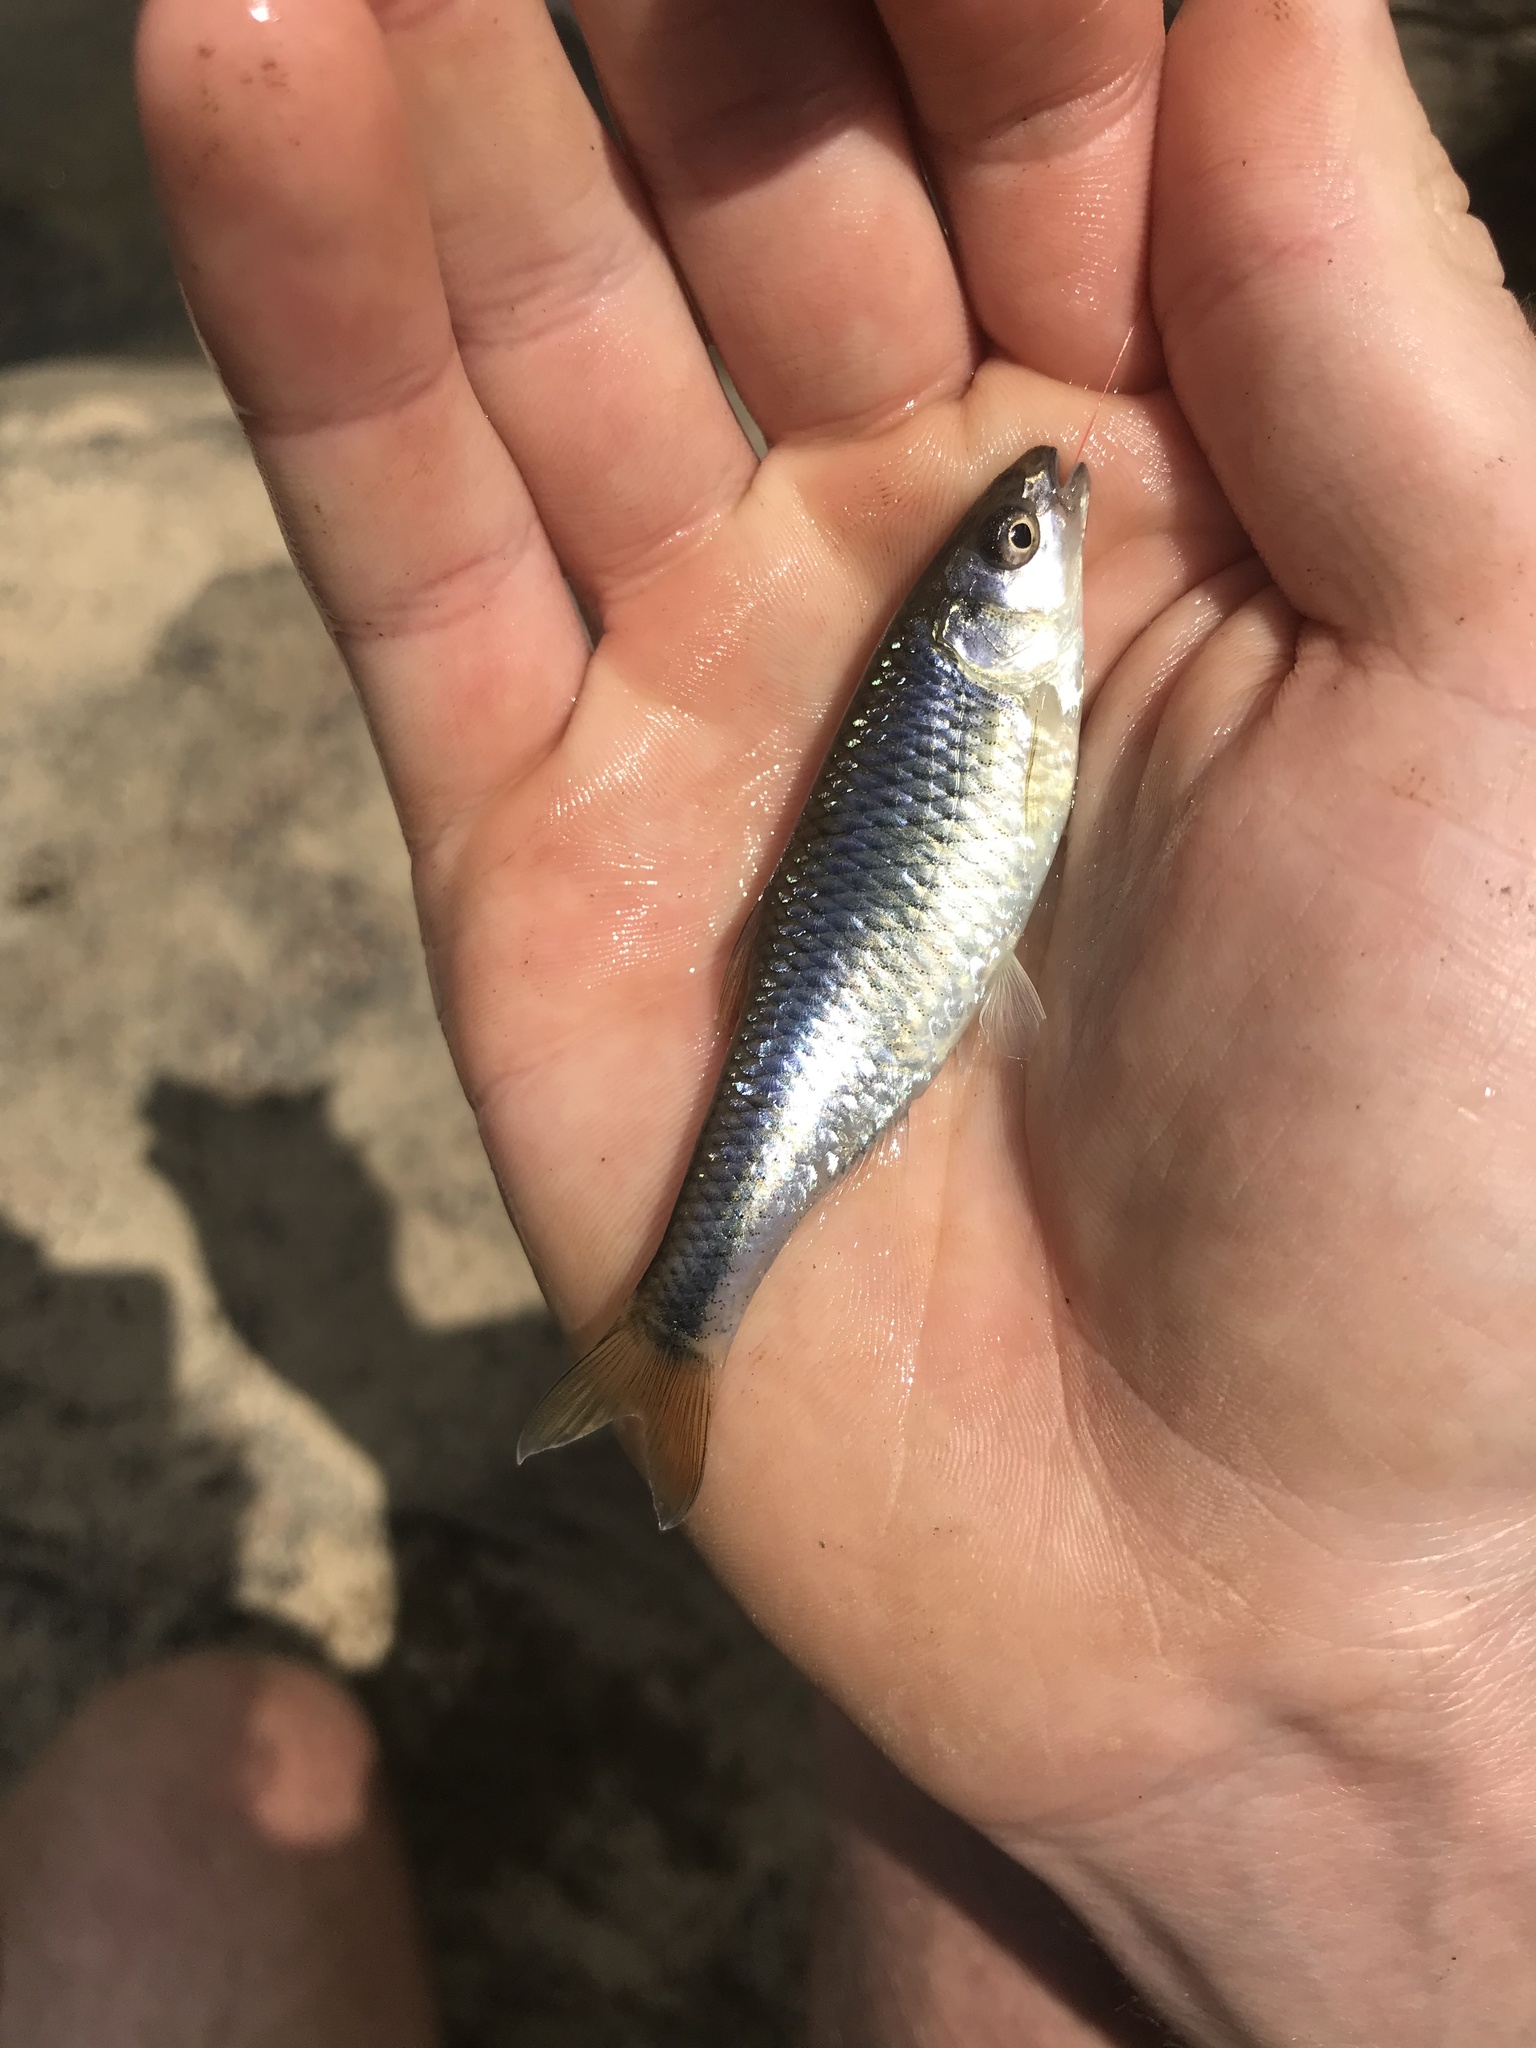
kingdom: Animalia
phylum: Chordata
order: Cypriniformes
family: Cyprinidae
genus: Cyprinella
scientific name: Cyprinella analostana
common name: Satinfin shiner
